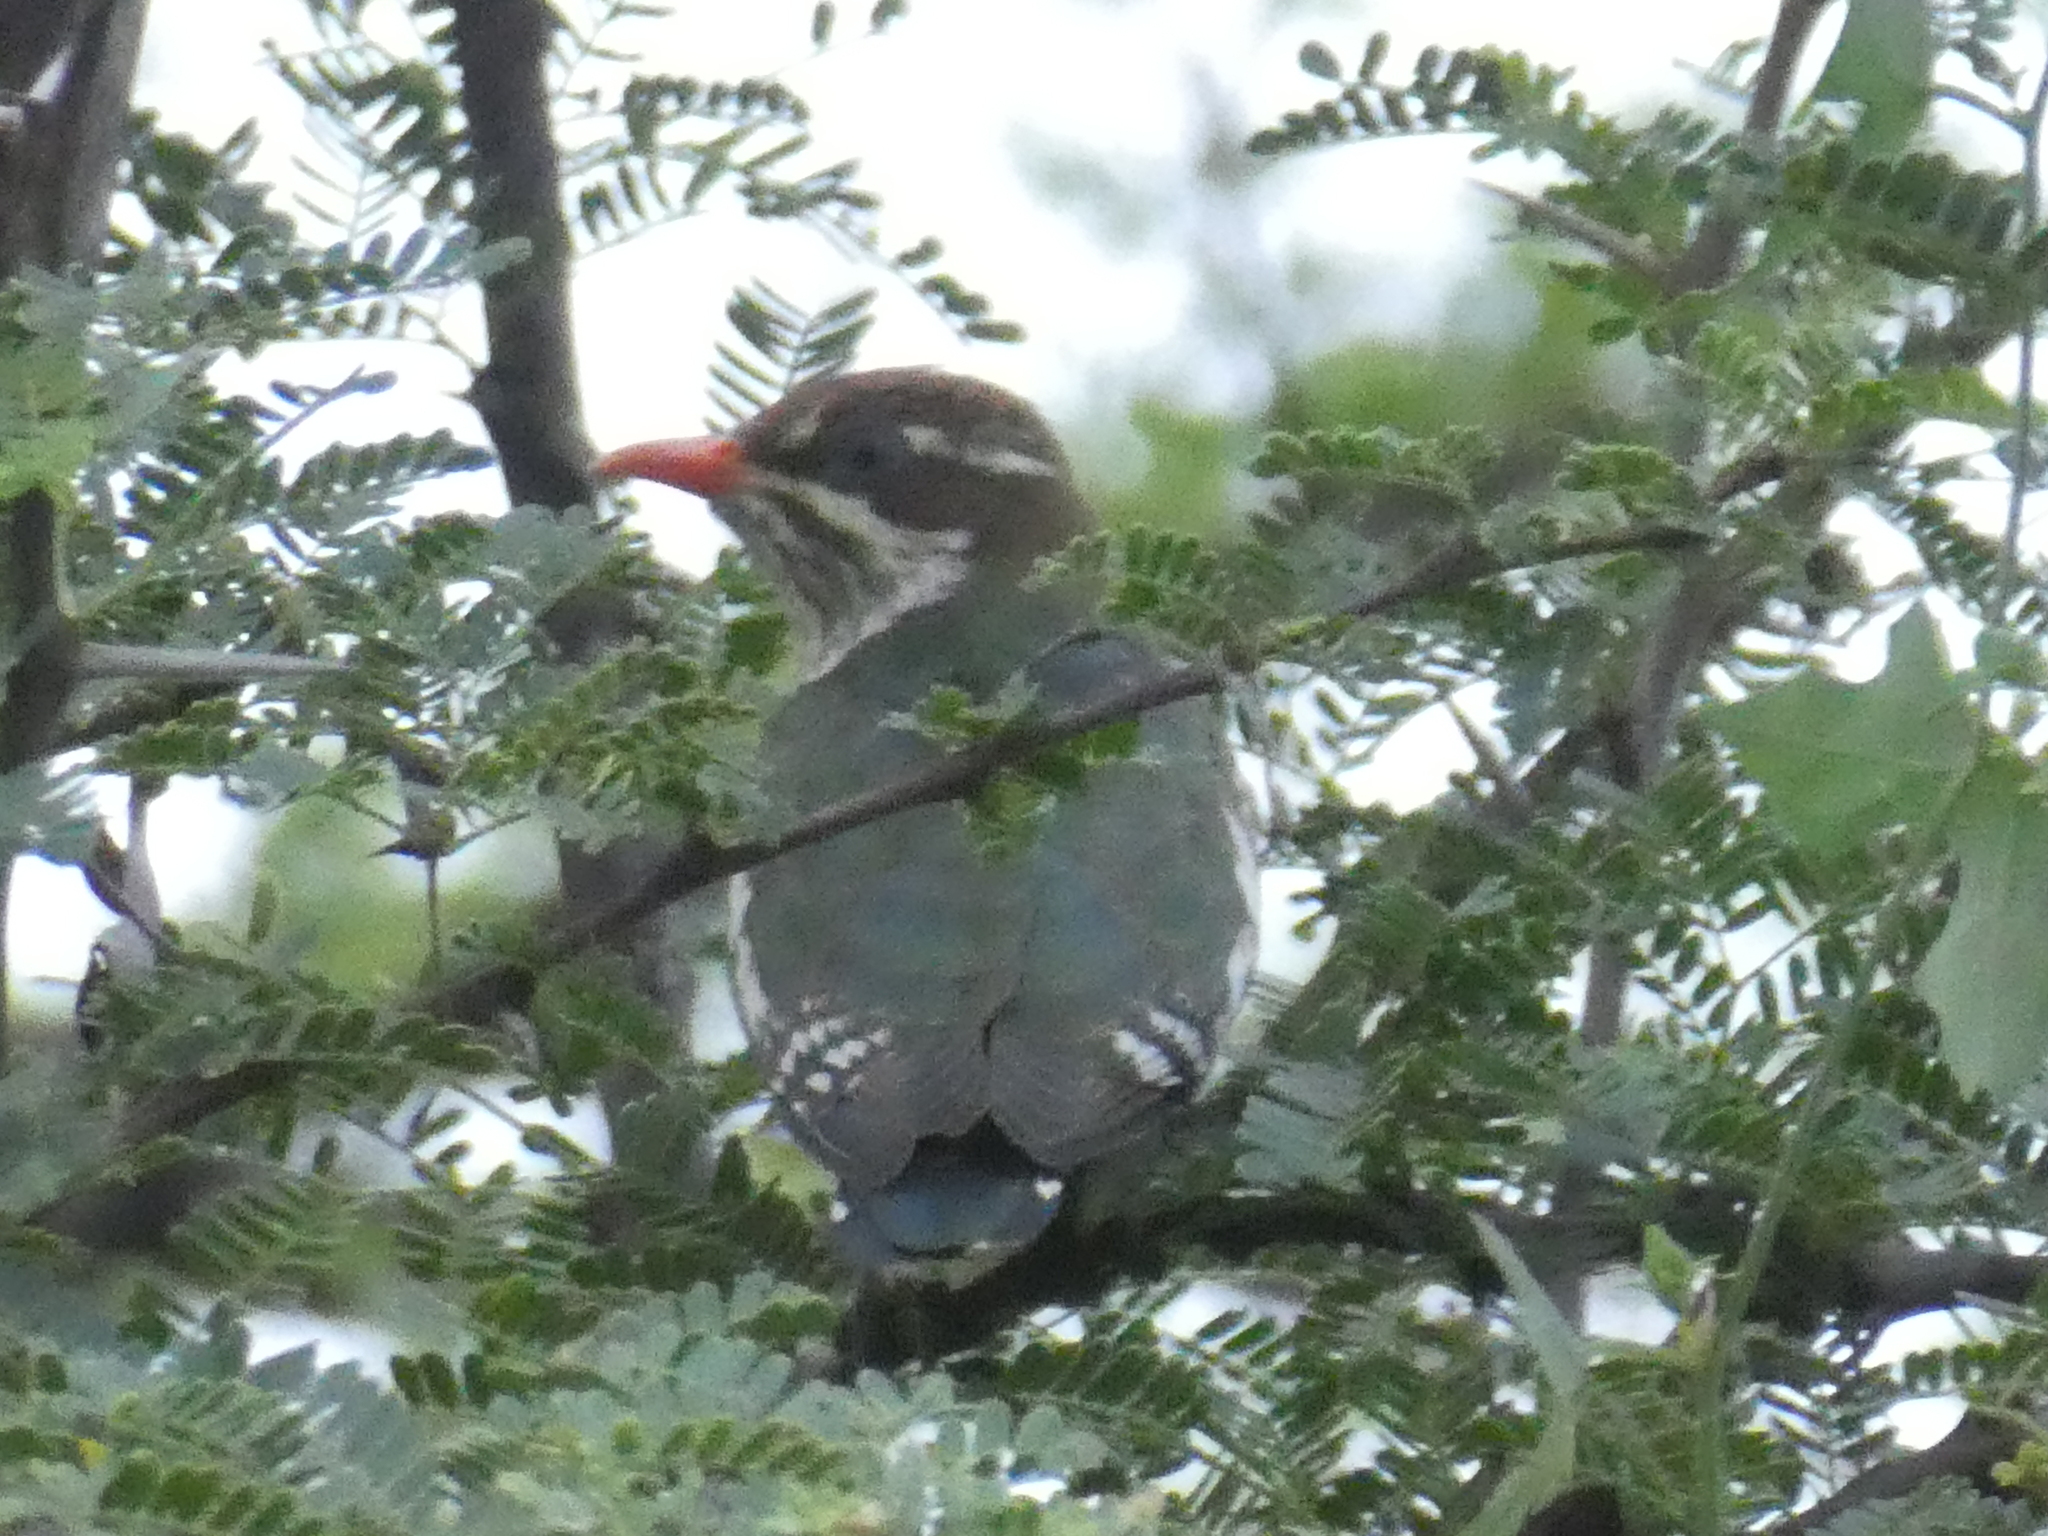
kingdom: Animalia
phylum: Chordata
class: Aves
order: Cuculiformes
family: Cuculidae
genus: Chrysococcyx
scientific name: Chrysococcyx caprius
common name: Diederik cuckoo
